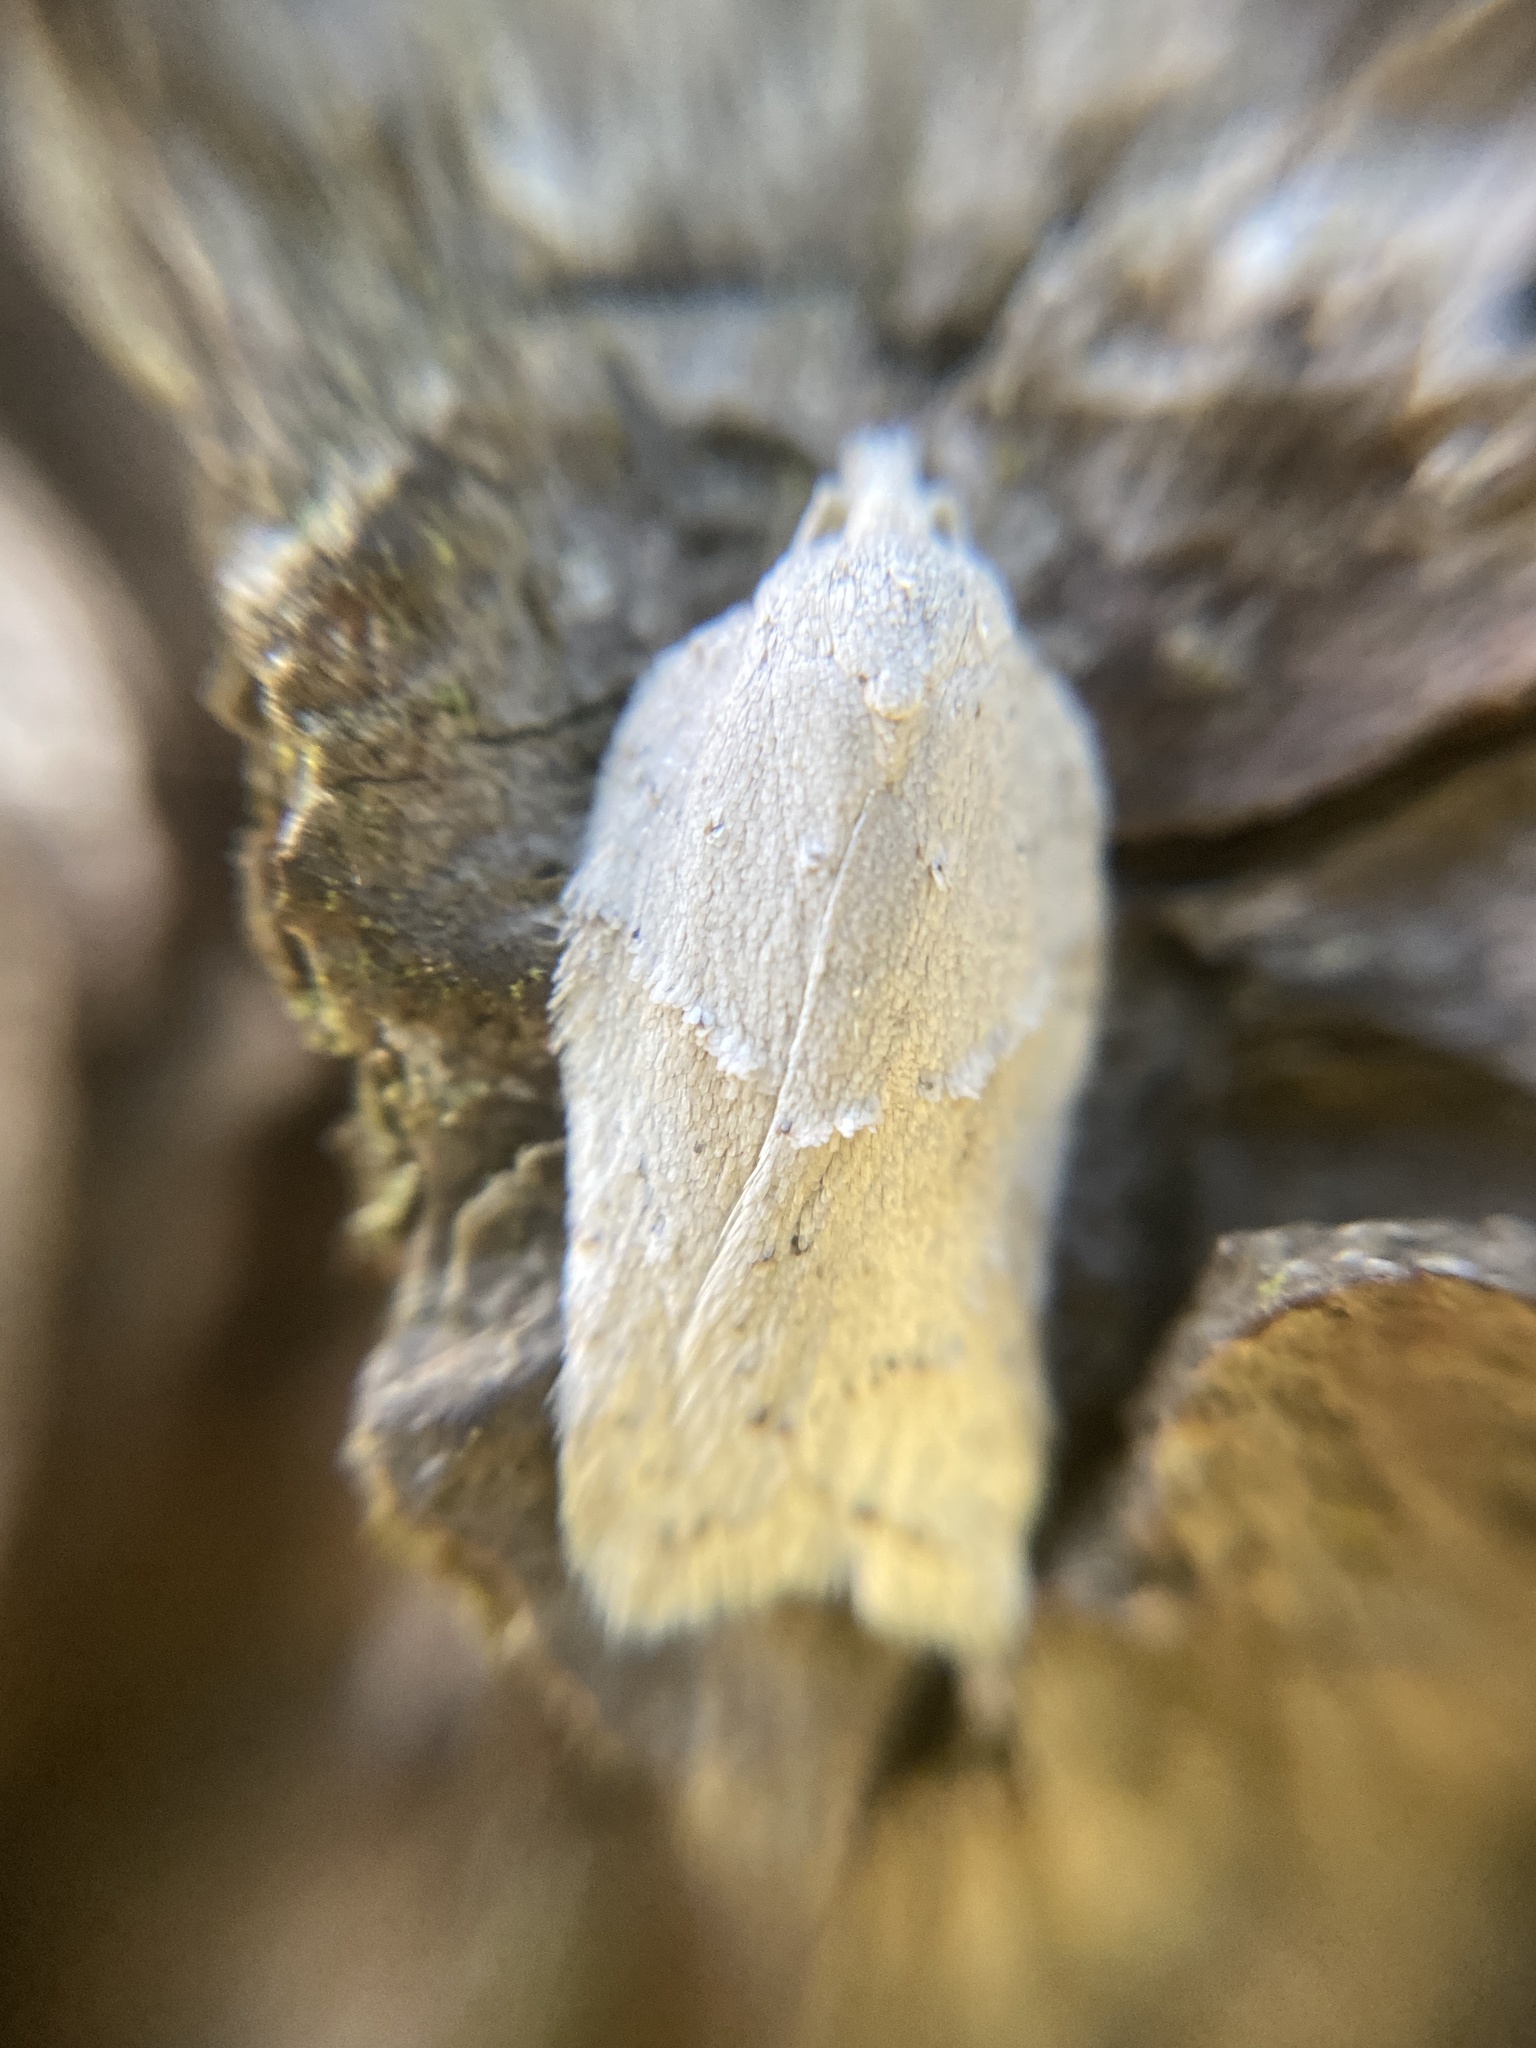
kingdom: Animalia
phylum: Arthropoda
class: Insecta
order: Lepidoptera
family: Tortricidae
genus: Acleris
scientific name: Acleris logiana
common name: Grey birch button
